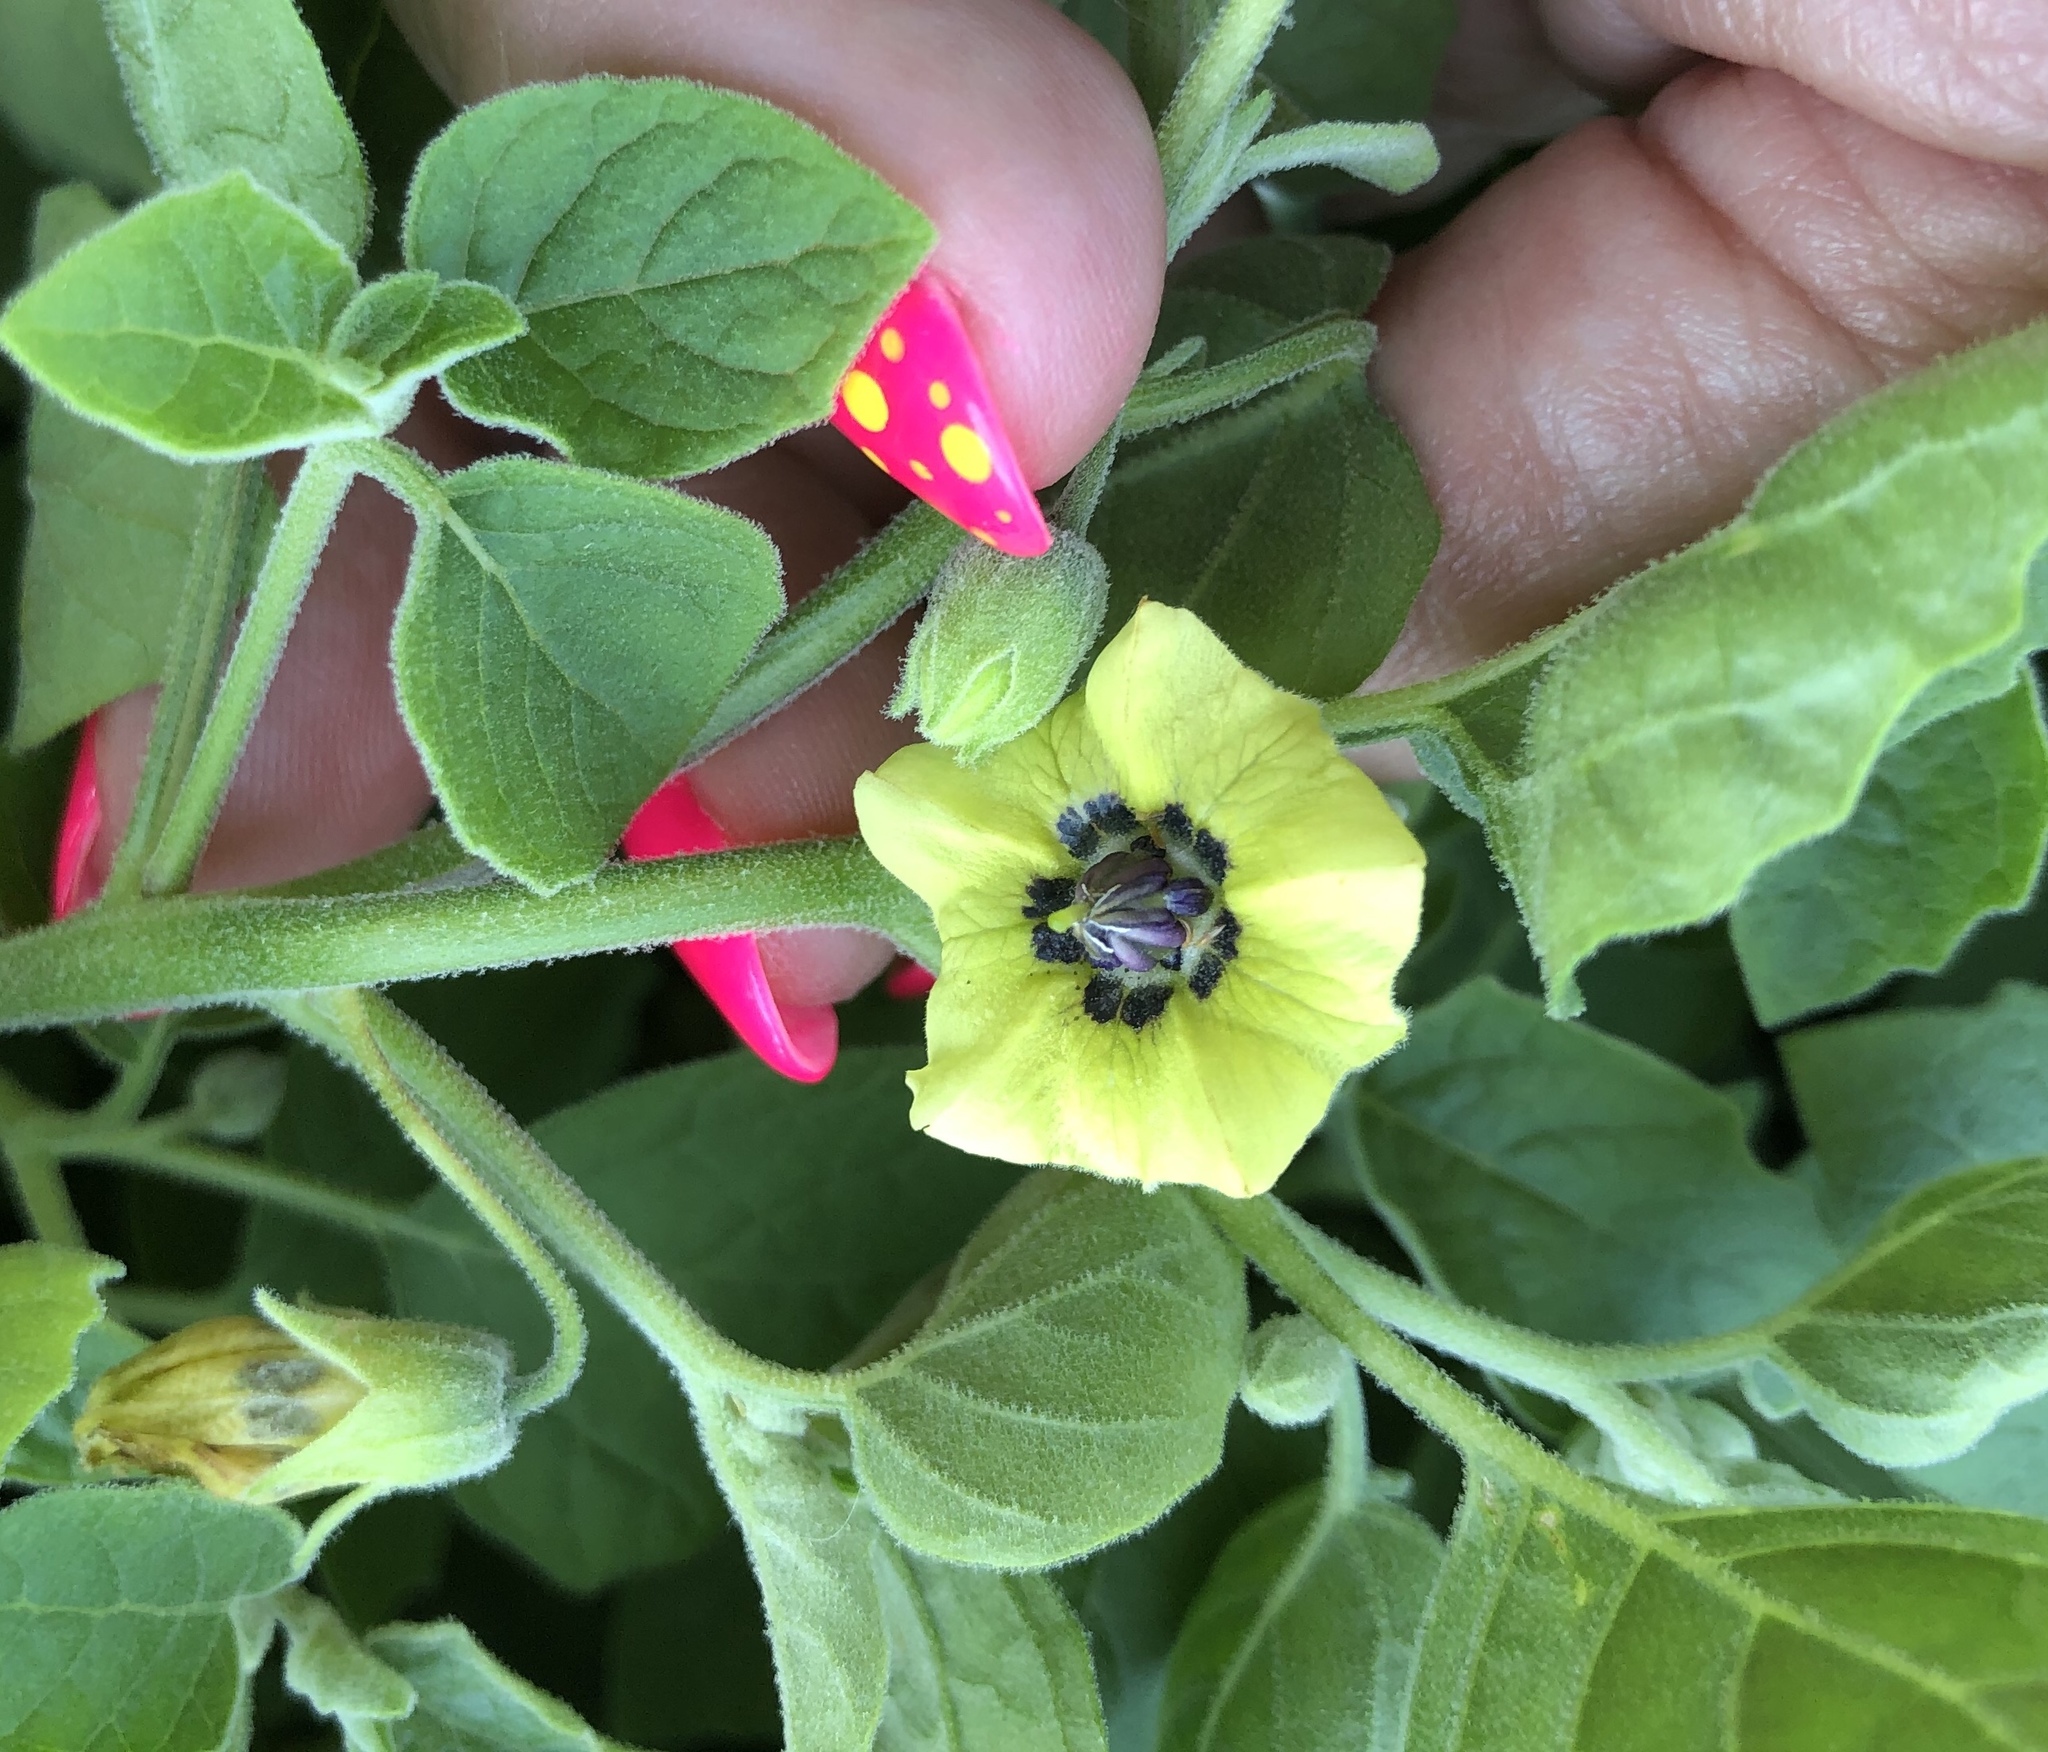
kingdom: Plantae
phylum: Tracheophyta
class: Magnoliopsida
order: Solanales
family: Solanaceae
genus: Physalis
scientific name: Physalis cinerascens
